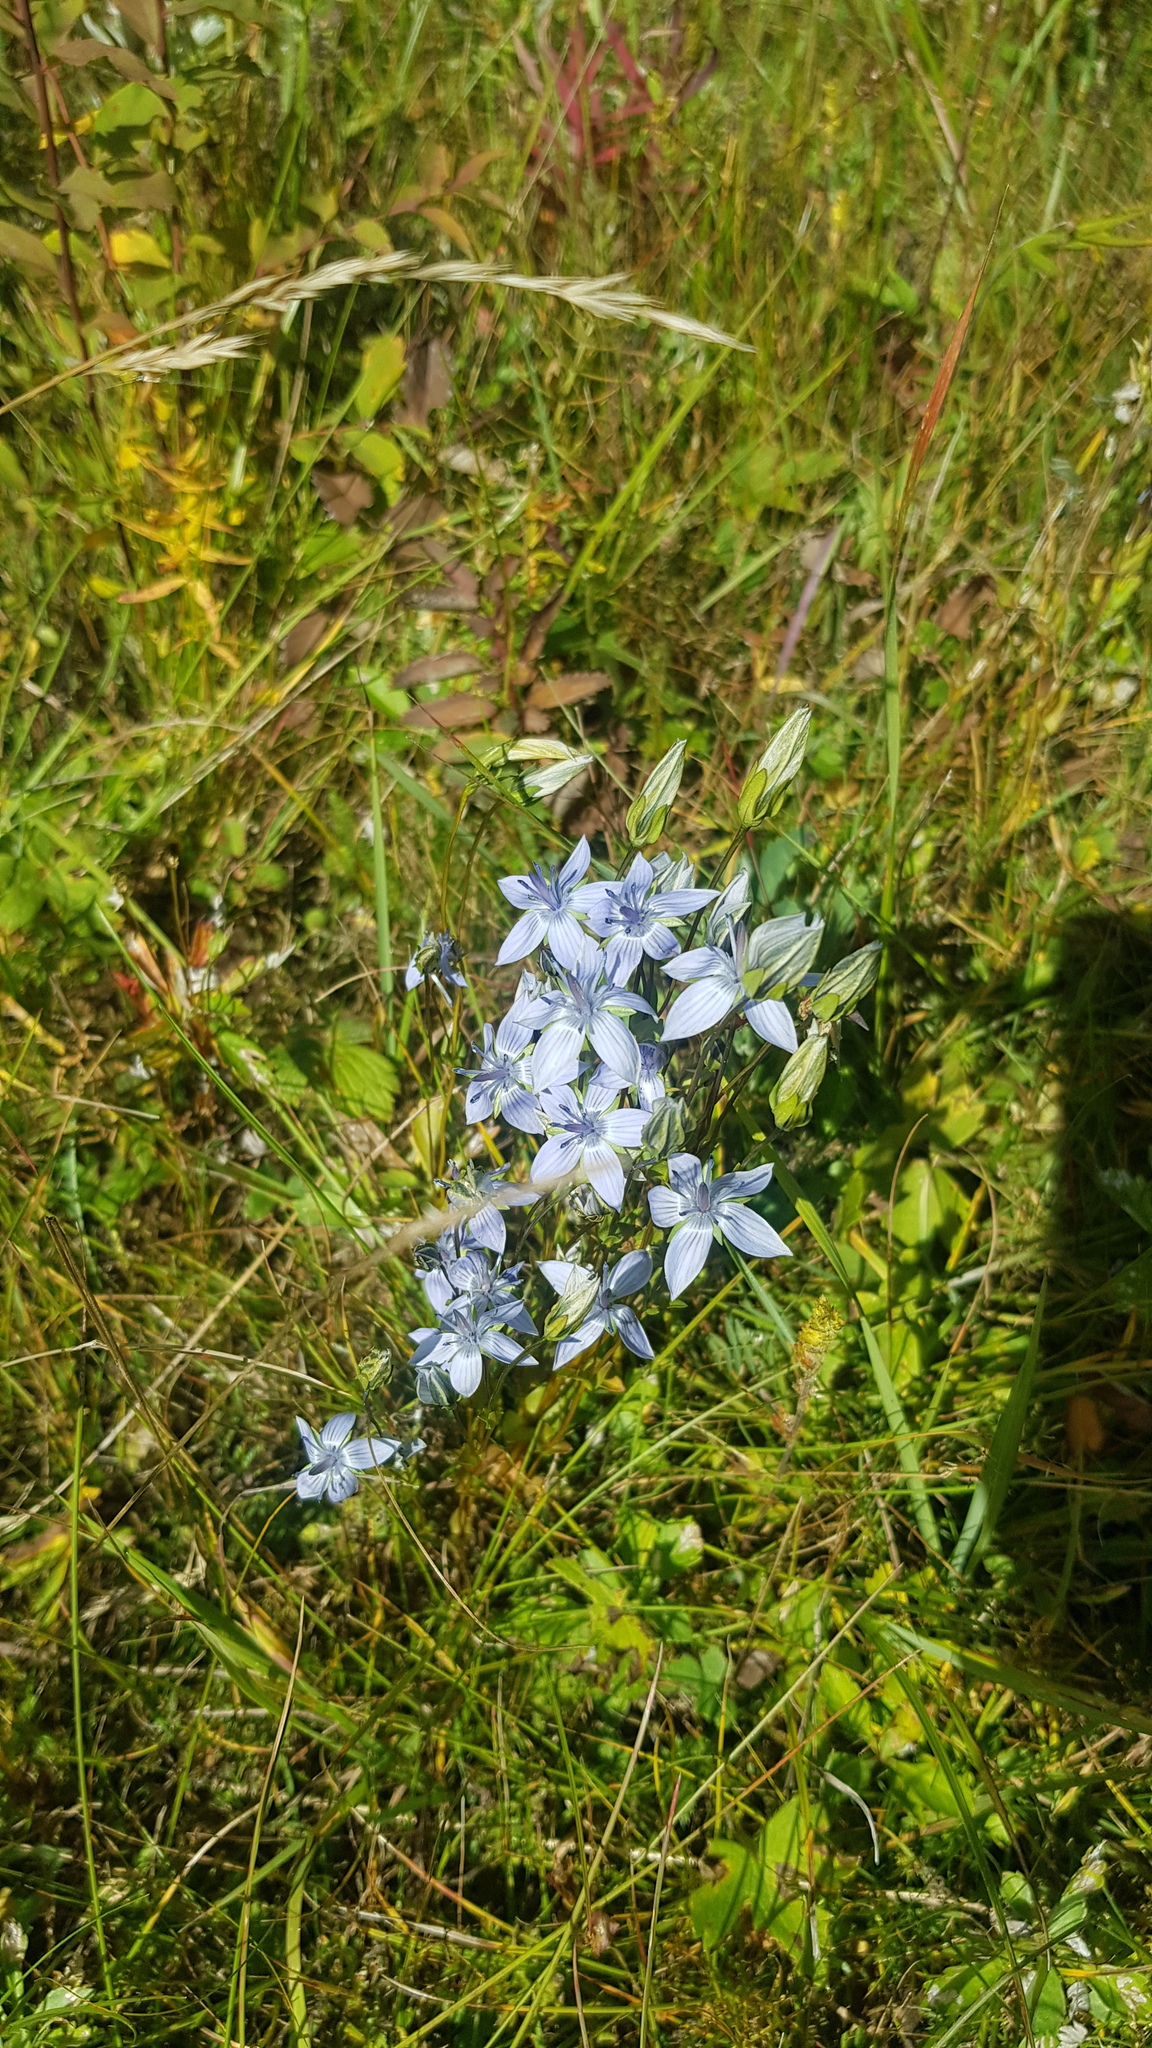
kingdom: Plantae
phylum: Tracheophyta
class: Magnoliopsida
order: Gentianales
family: Gentianaceae
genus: Lomatogonium
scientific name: Lomatogonium carinthiacum
